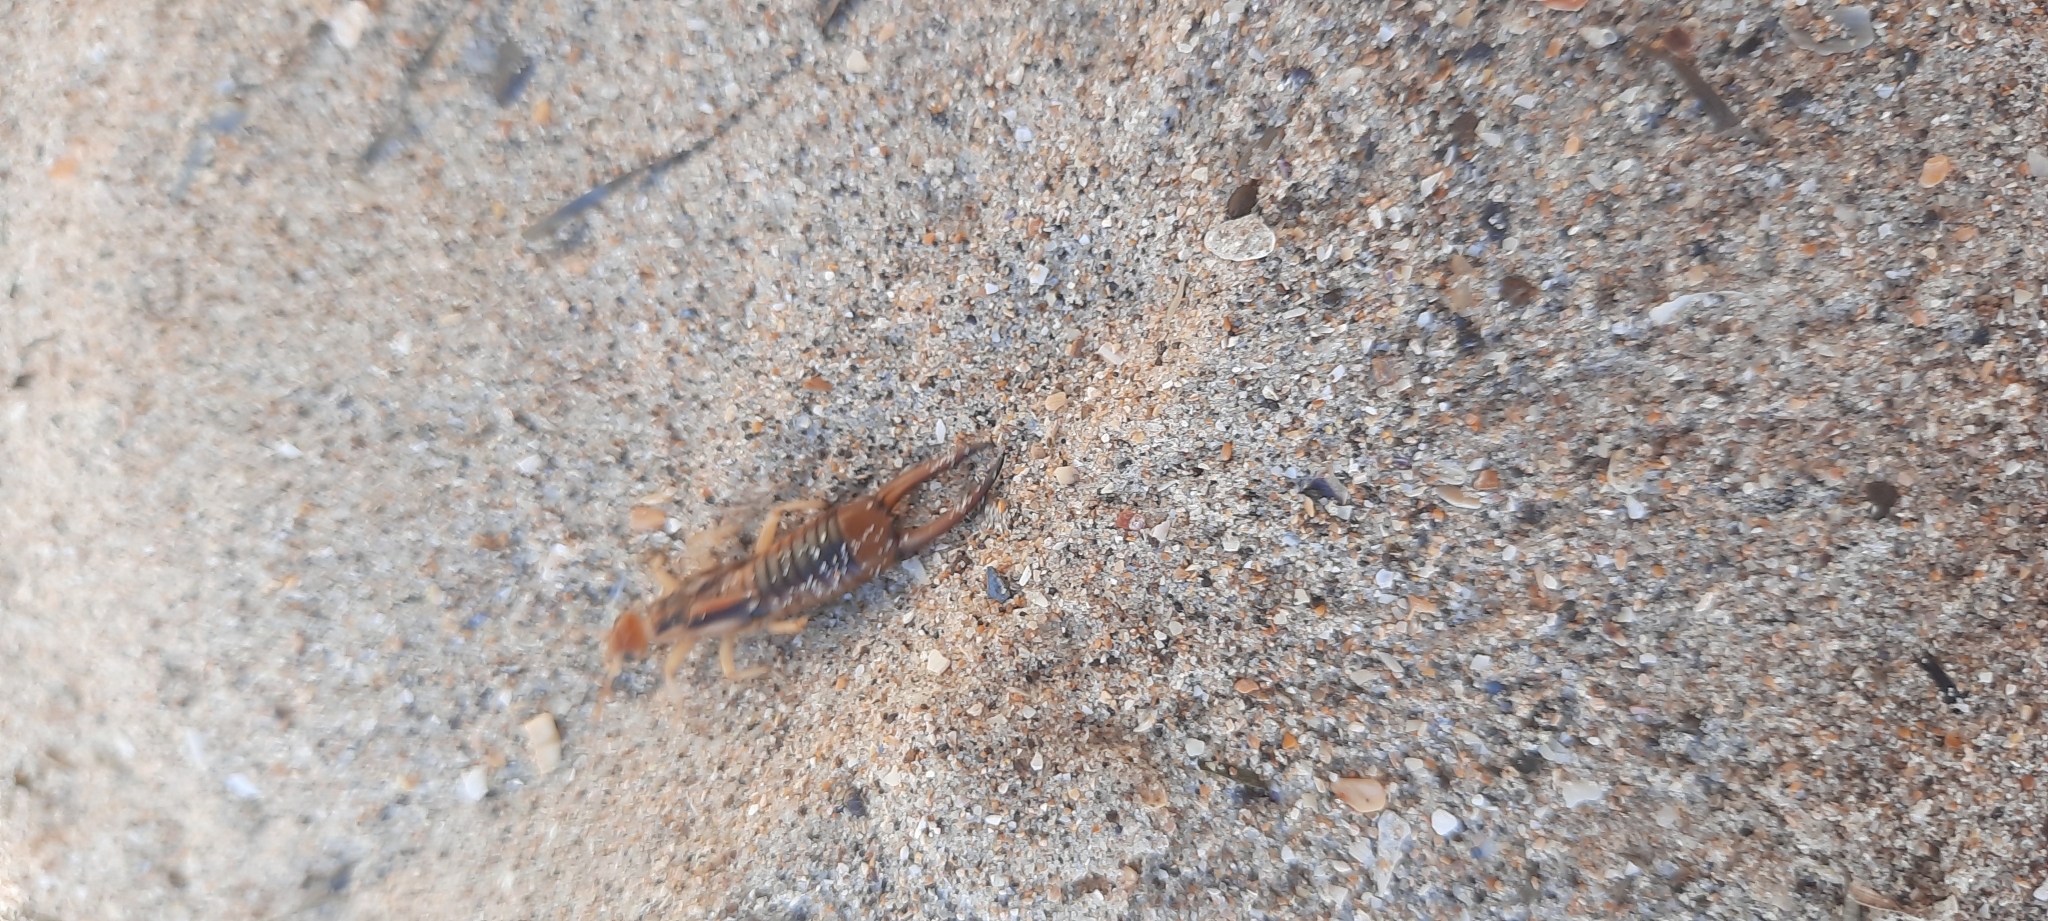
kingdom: Animalia
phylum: Arthropoda
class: Insecta
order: Dermaptera
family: Labiduridae
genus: Labidura
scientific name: Labidura riparia
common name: Striped earwig
